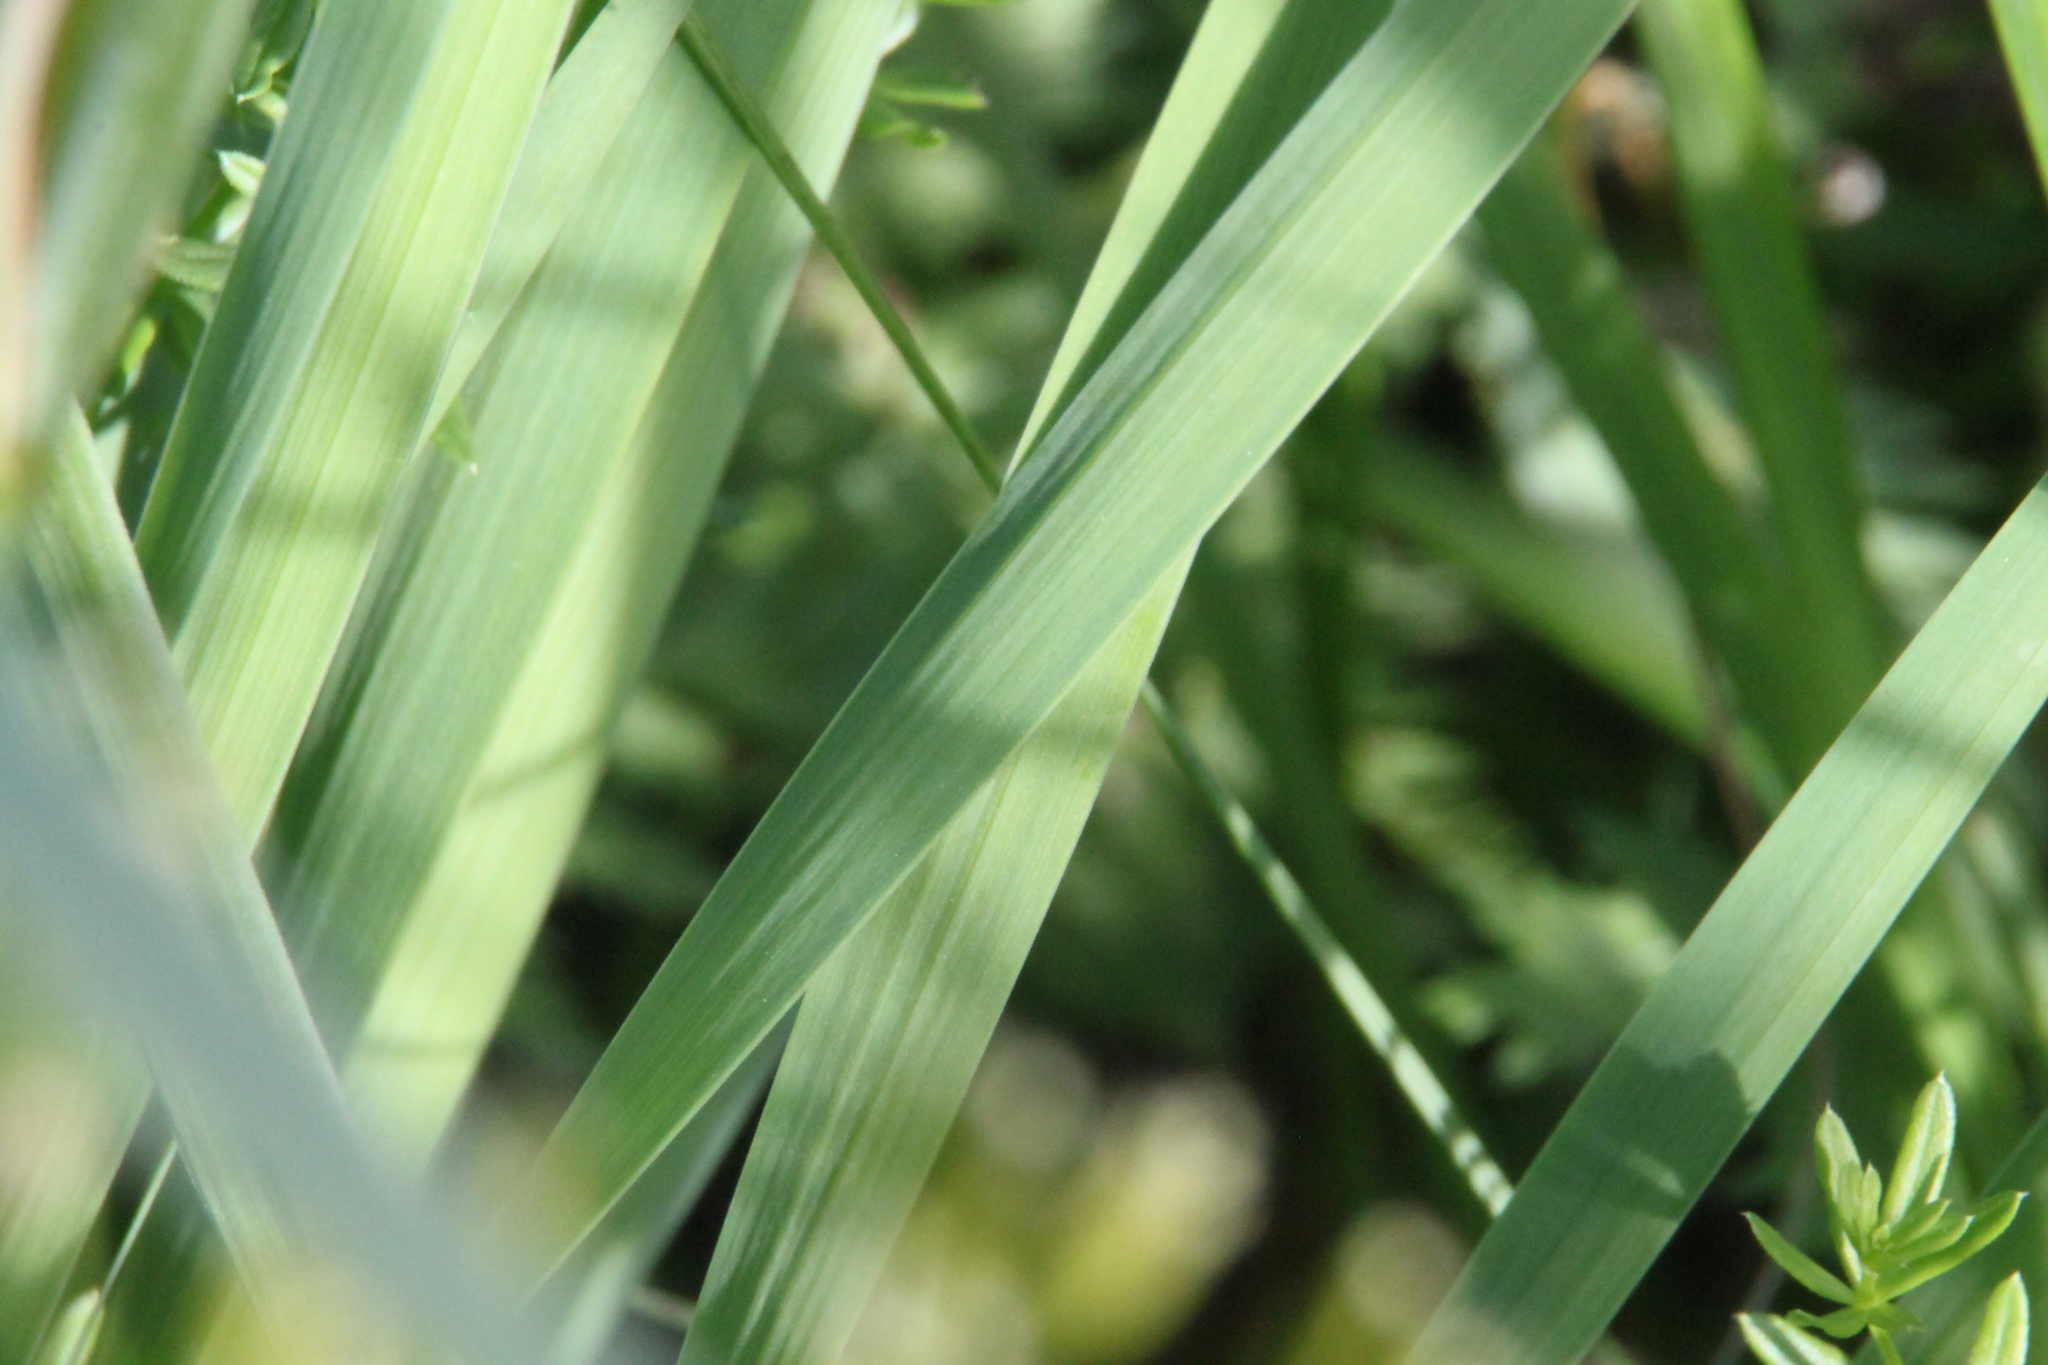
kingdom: Plantae
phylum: Tracheophyta
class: Liliopsida
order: Asparagales
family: Iridaceae
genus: Iris
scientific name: Iris sibirica
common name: Siberian iris
